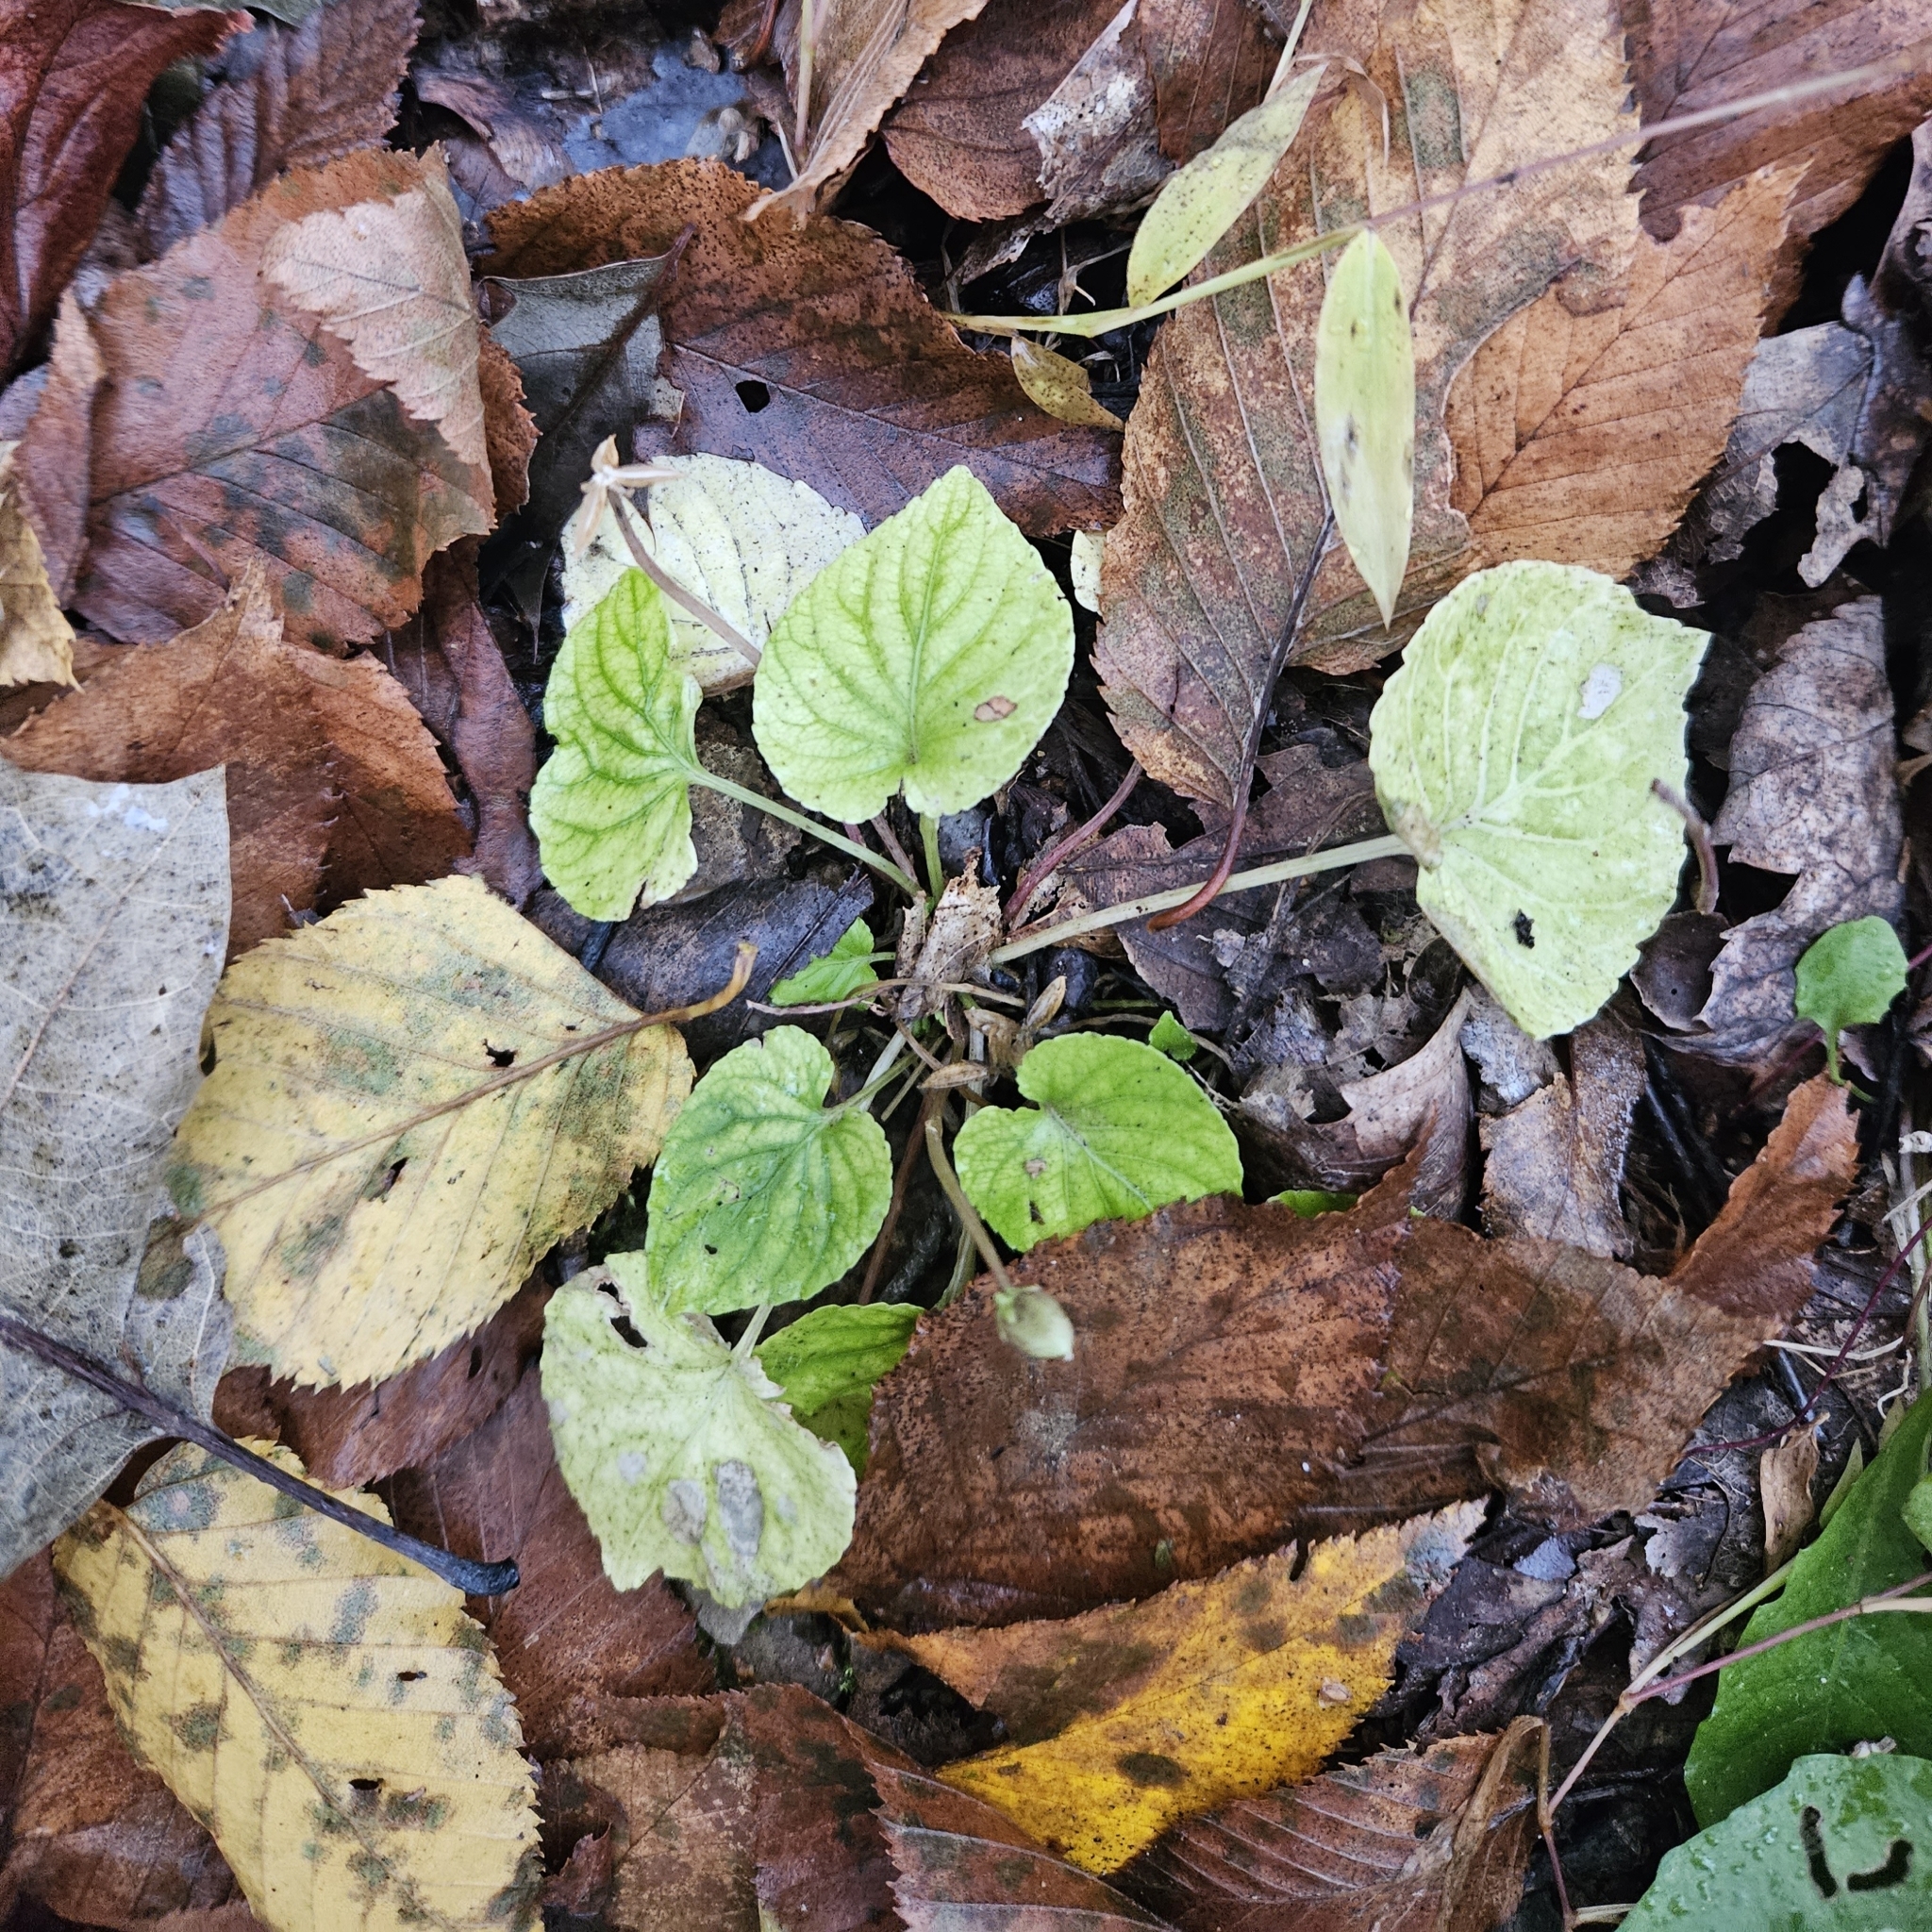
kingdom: Plantae
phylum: Tracheophyta
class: Magnoliopsida
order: Malpighiales
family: Violaceae
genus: Viola
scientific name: Viola blanda
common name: Sweet white violet
